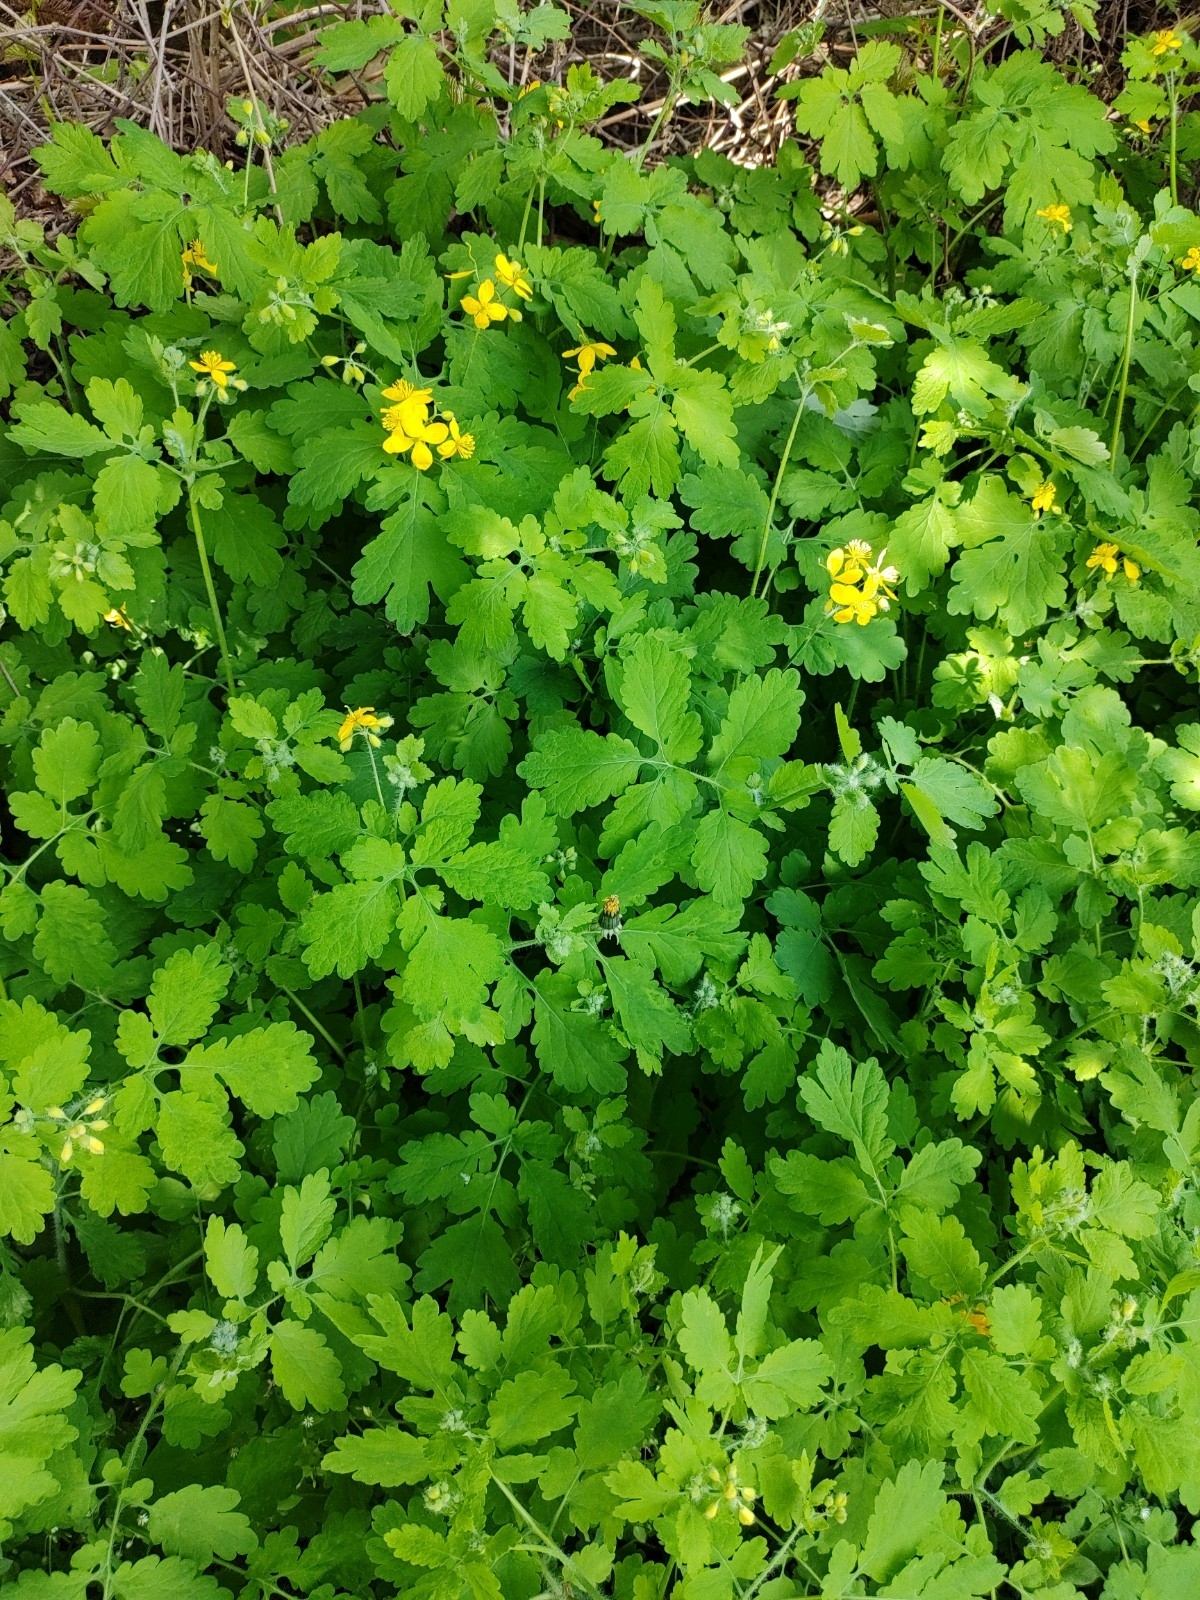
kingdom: Plantae
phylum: Tracheophyta
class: Magnoliopsida
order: Ranunculales
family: Papaveraceae
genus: Chelidonium
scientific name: Chelidonium majus
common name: Greater celandine
